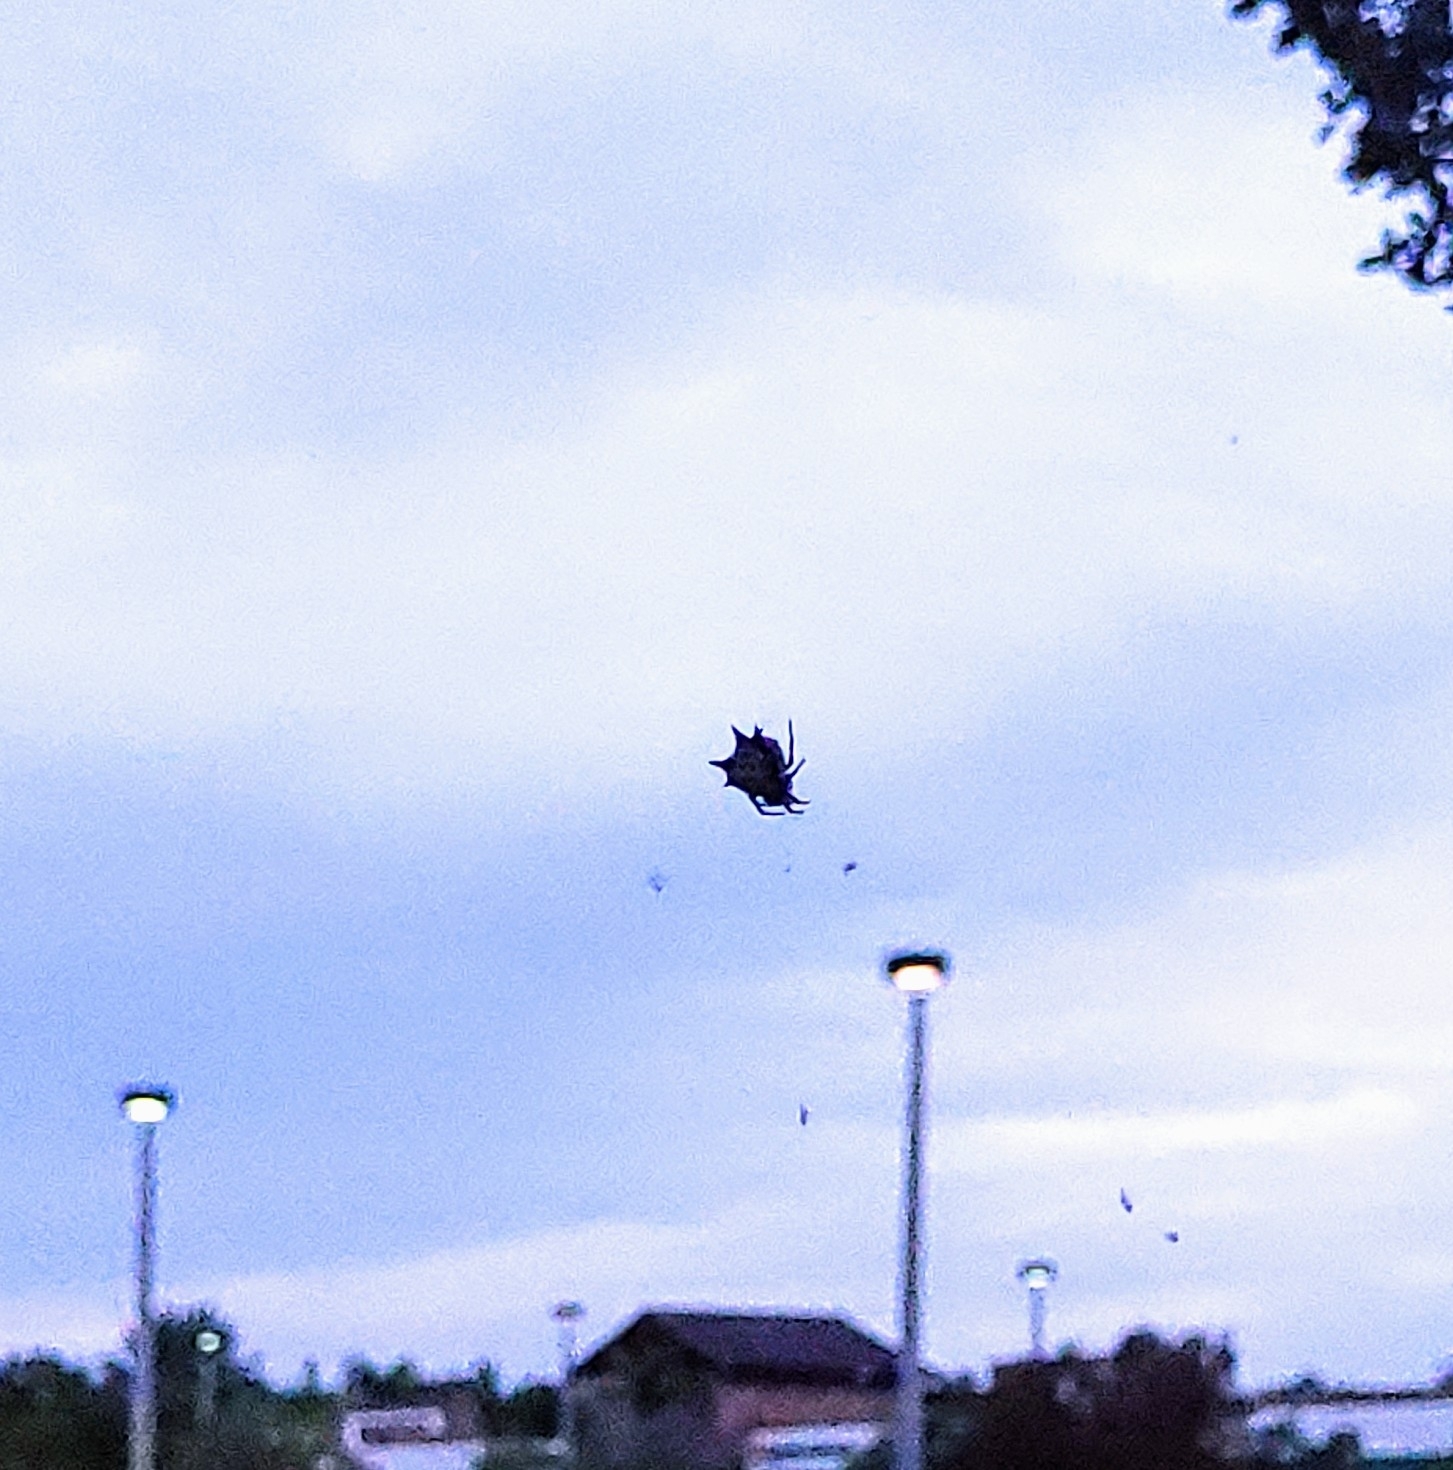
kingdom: Animalia
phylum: Arthropoda
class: Arachnida
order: Araneae
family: Araneidae
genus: Gasteracantha
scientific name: Gasteracantha cancriformis
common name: Orb weavers
